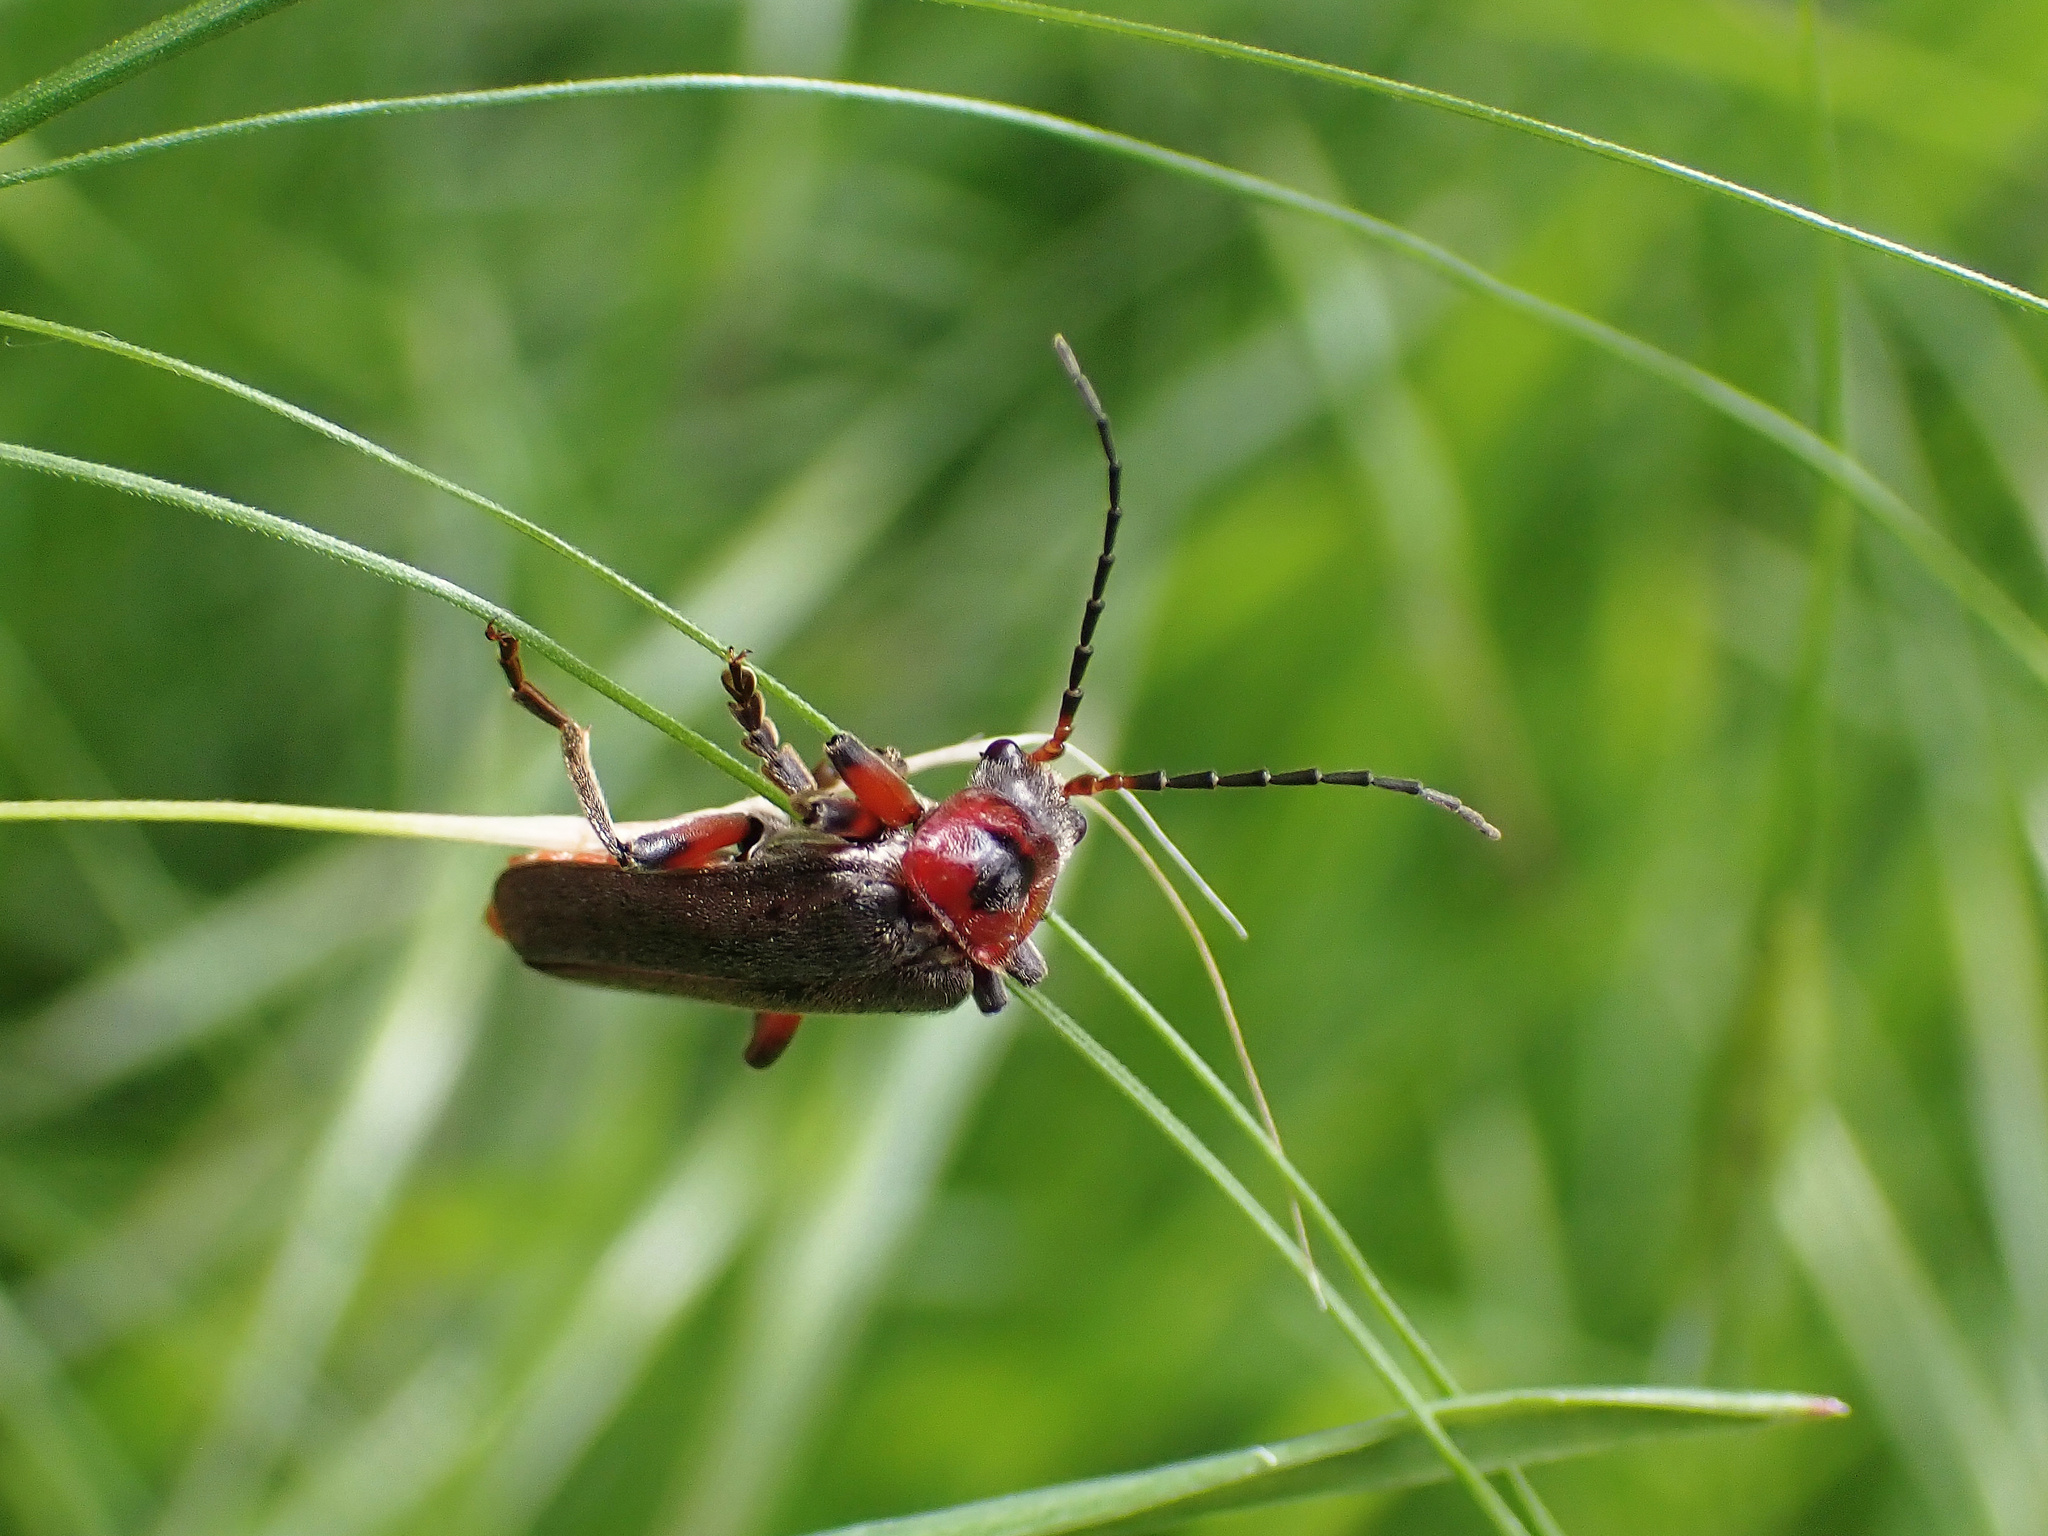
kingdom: Animalia
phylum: Arthropoda
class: Insecta
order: Coleoptera
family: Cantharidae
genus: Cantharis
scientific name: Cantharis rustica
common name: Soldier beetle
